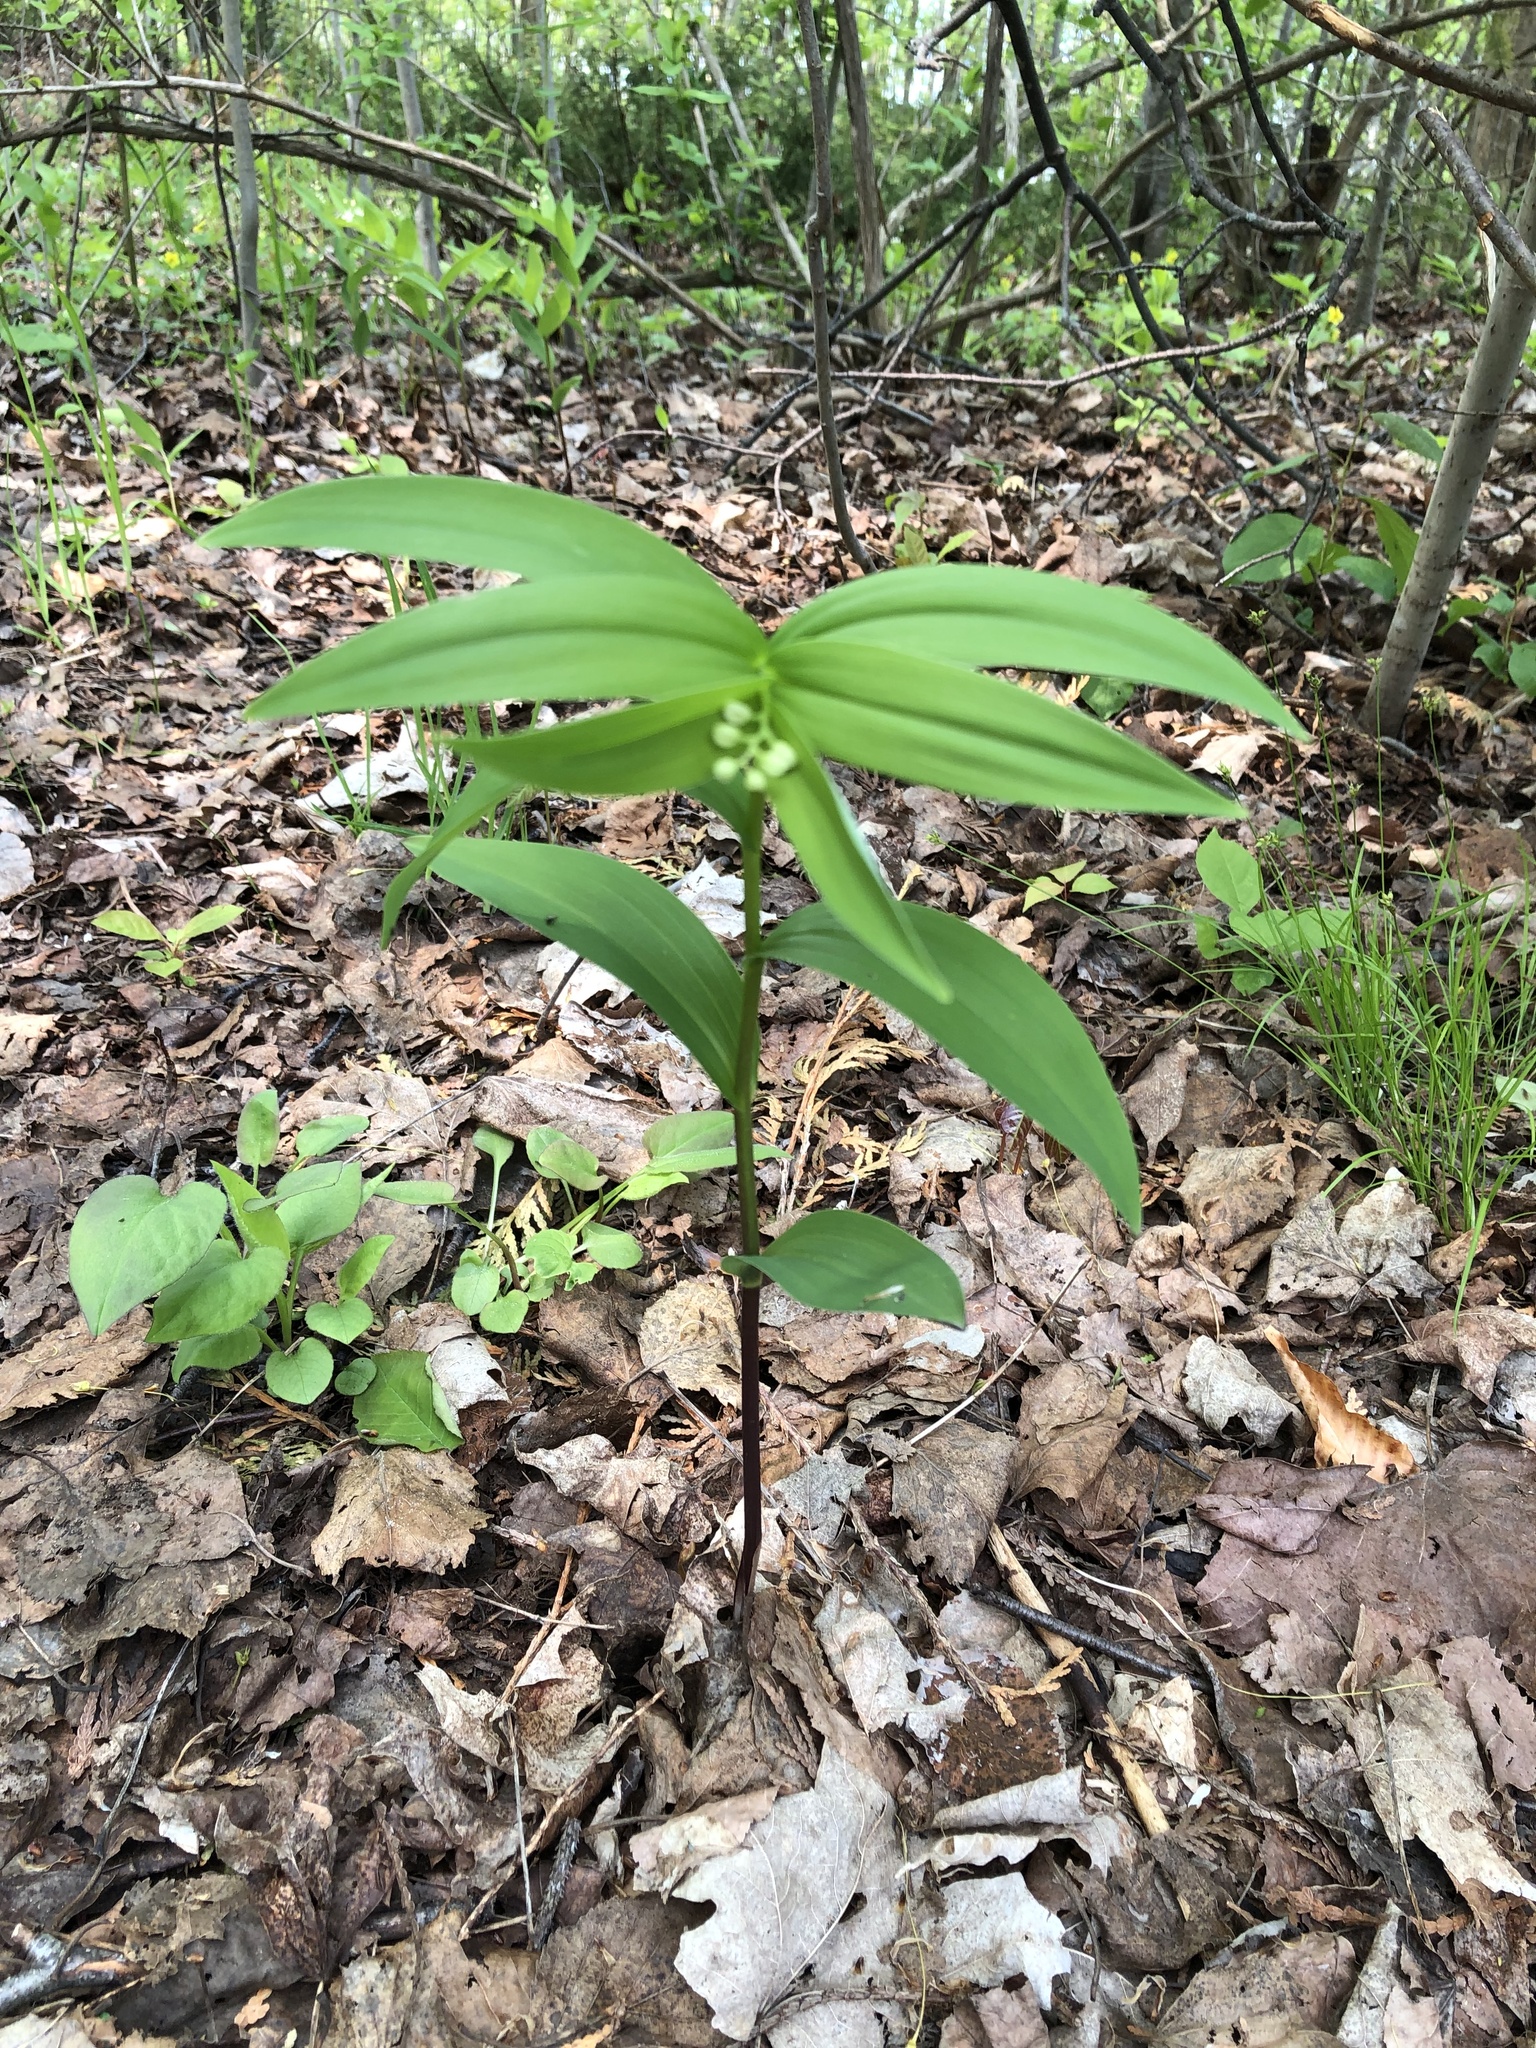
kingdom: Plantae
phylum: Tracheophyta
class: Liliopsida
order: Asparagales
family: Asparagaceae
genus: Maianthemum
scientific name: Maianthemum stellatum
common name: Little false solomon's seal
